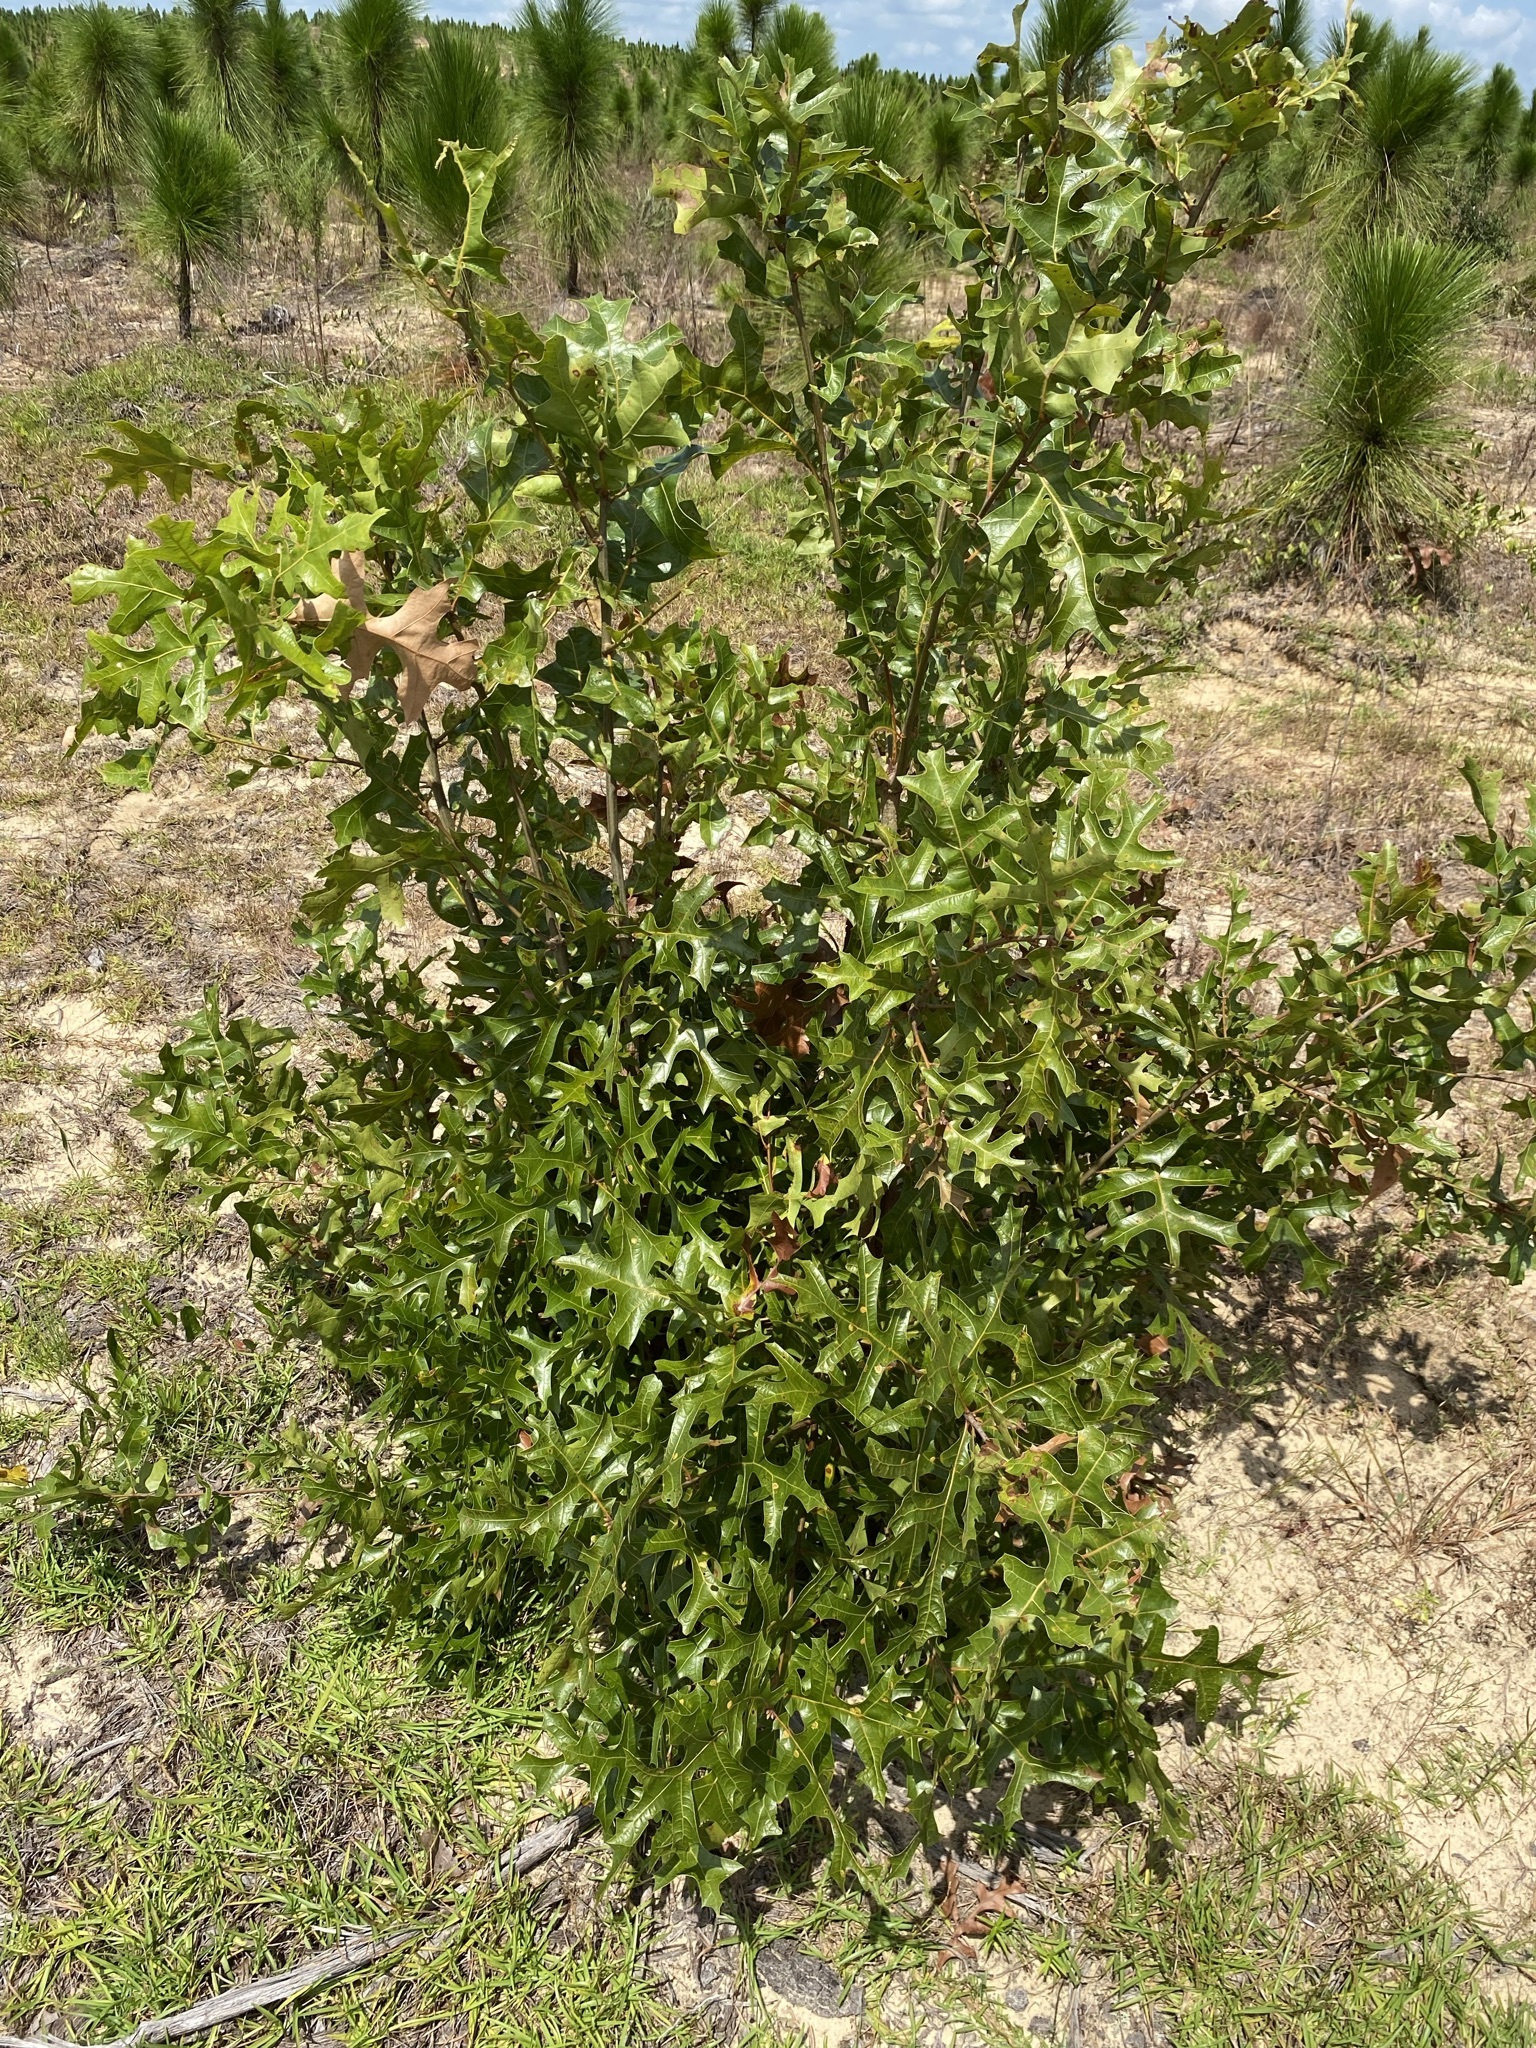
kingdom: Plantae
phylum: Tracheophyta
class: Magnoliopsida
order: Fagales
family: Fagaceae
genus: Quercus
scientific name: Quercus laevis
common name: Turkey oak
